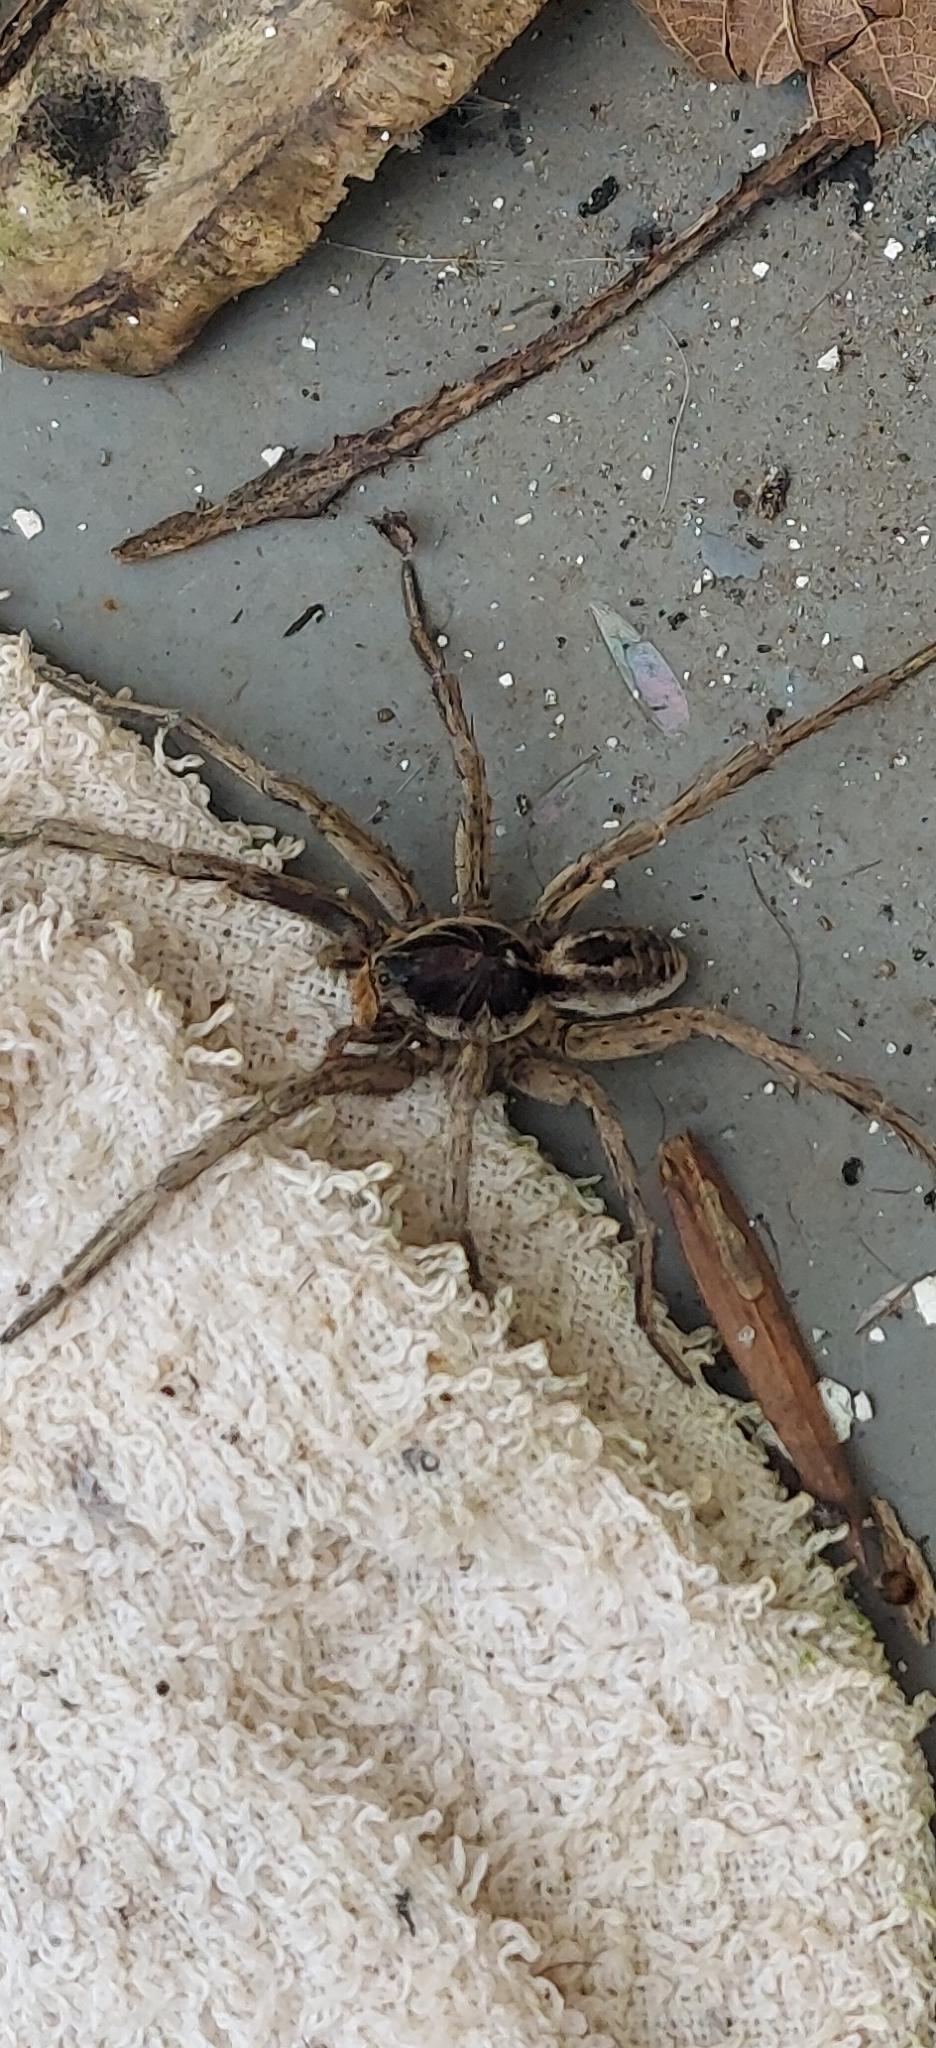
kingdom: Animalia
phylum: Arthropoda
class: Arachnida
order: Araneae
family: Lycosidae
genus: Lycosa
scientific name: Lycosa erythrognatha
